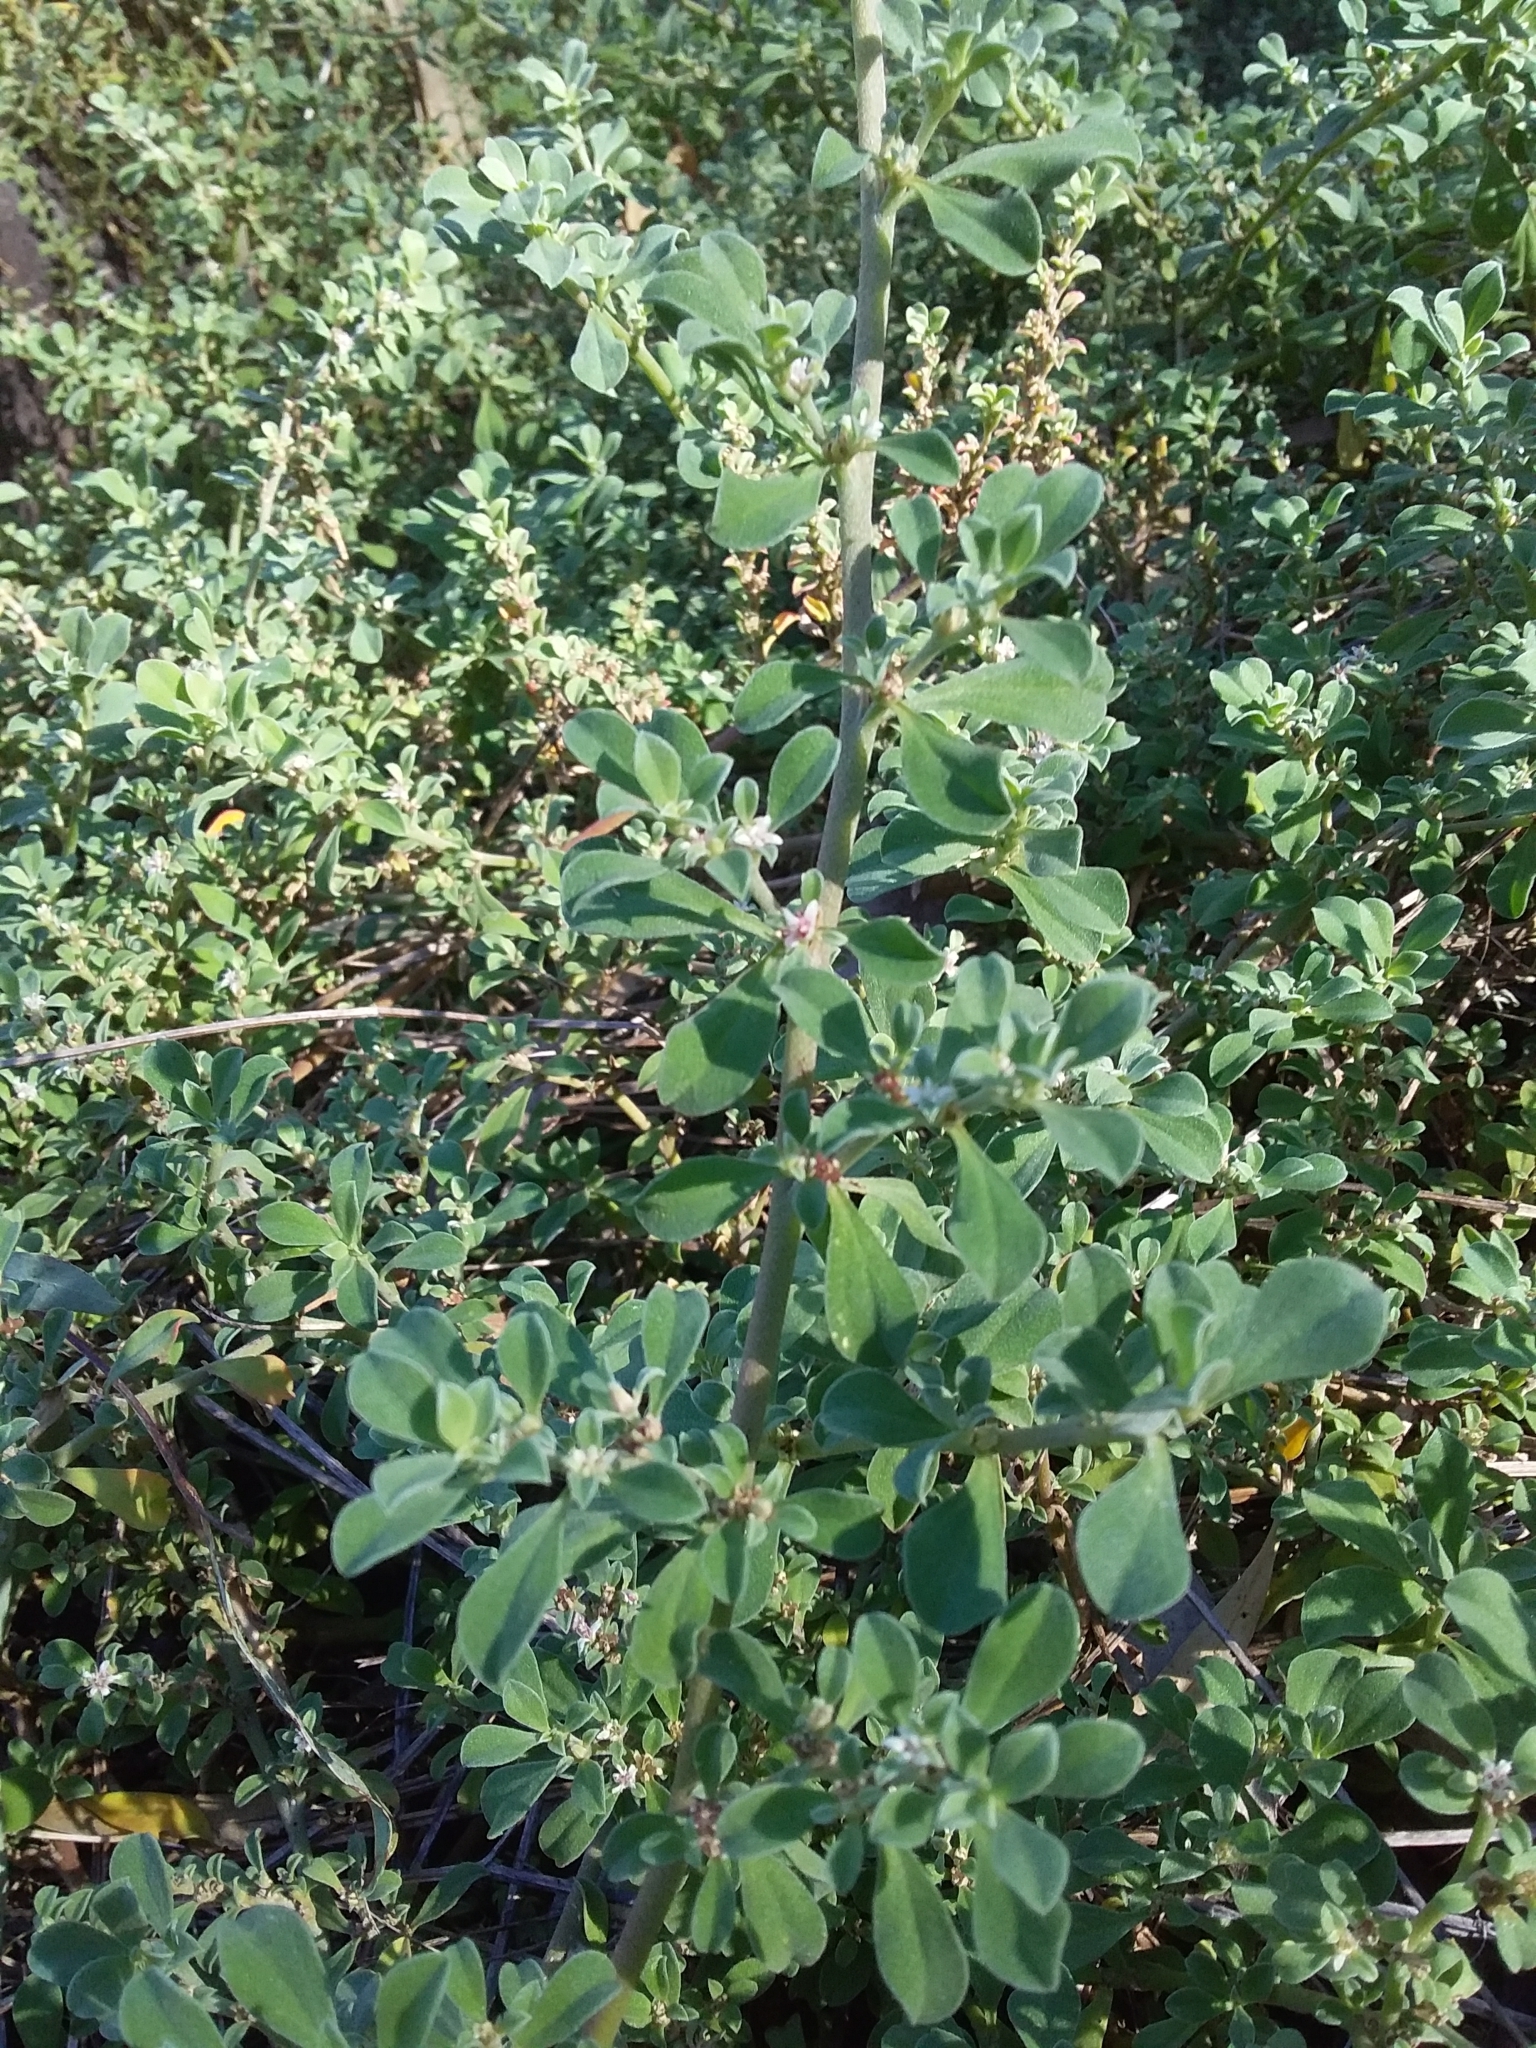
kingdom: Plantae
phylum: Tracheophyta
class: Magnoliopsida
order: Caryophyllales
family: Aizoaceae
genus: Aizoon
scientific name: Aizoon pubescens
